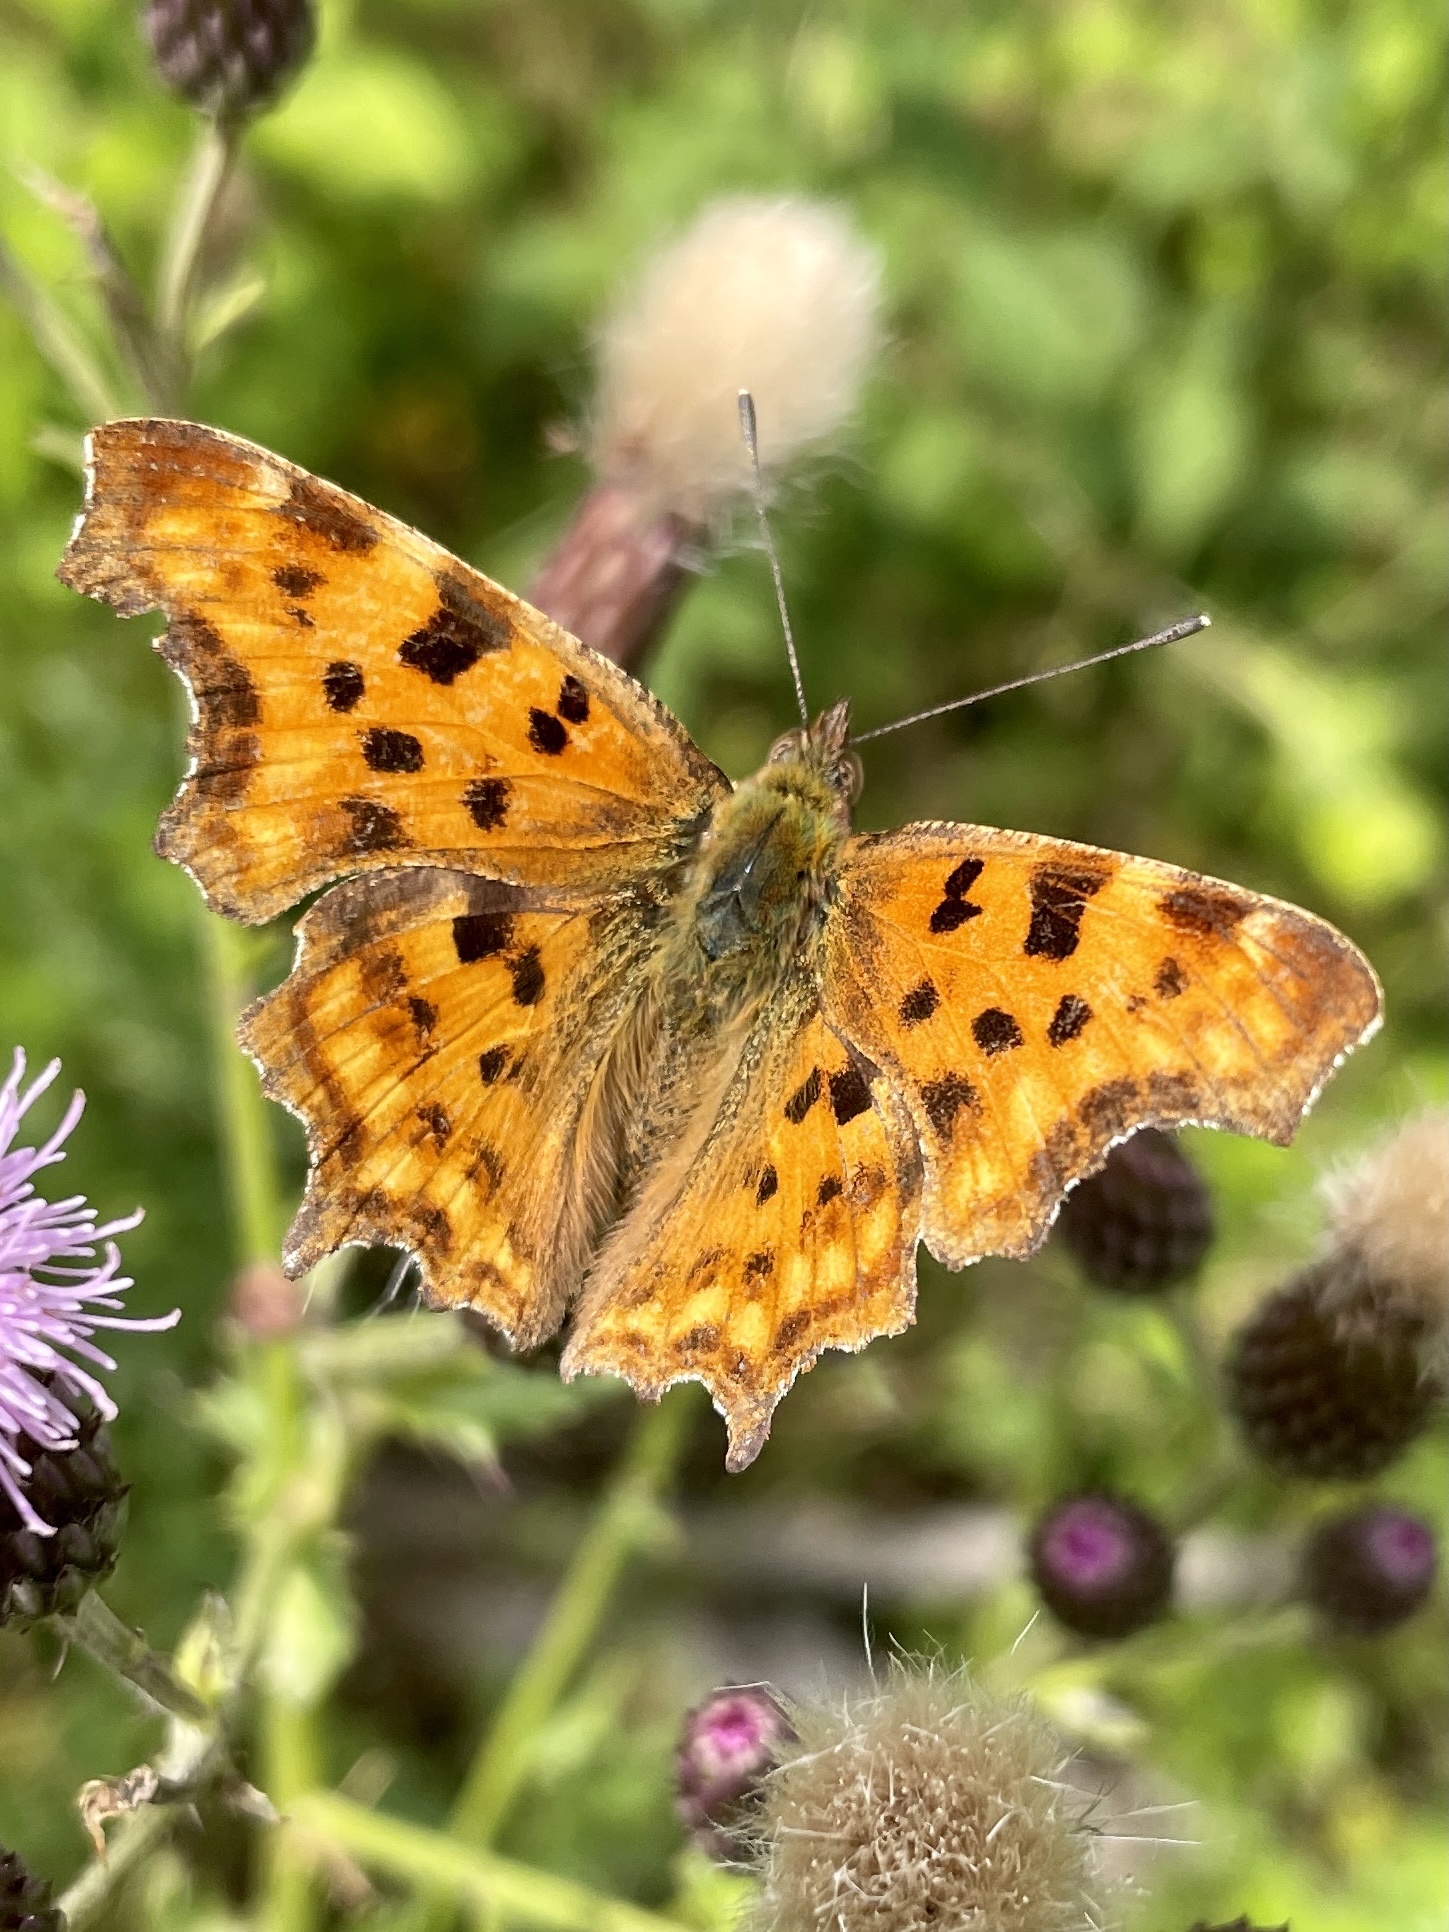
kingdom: Animalia
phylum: Arthropoda
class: Insecta
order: Lepidoptera
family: Nymphalidae
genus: Polygonia
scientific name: Polygonia c-album
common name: Comma
